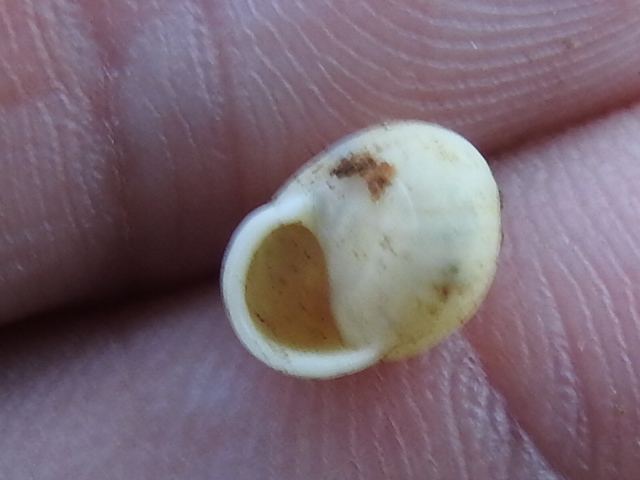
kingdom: Animalia
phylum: Mollusca
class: Gastropoda
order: Cycloneritida
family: Helicinidae
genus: Helicina
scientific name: Helicina orbiculata
